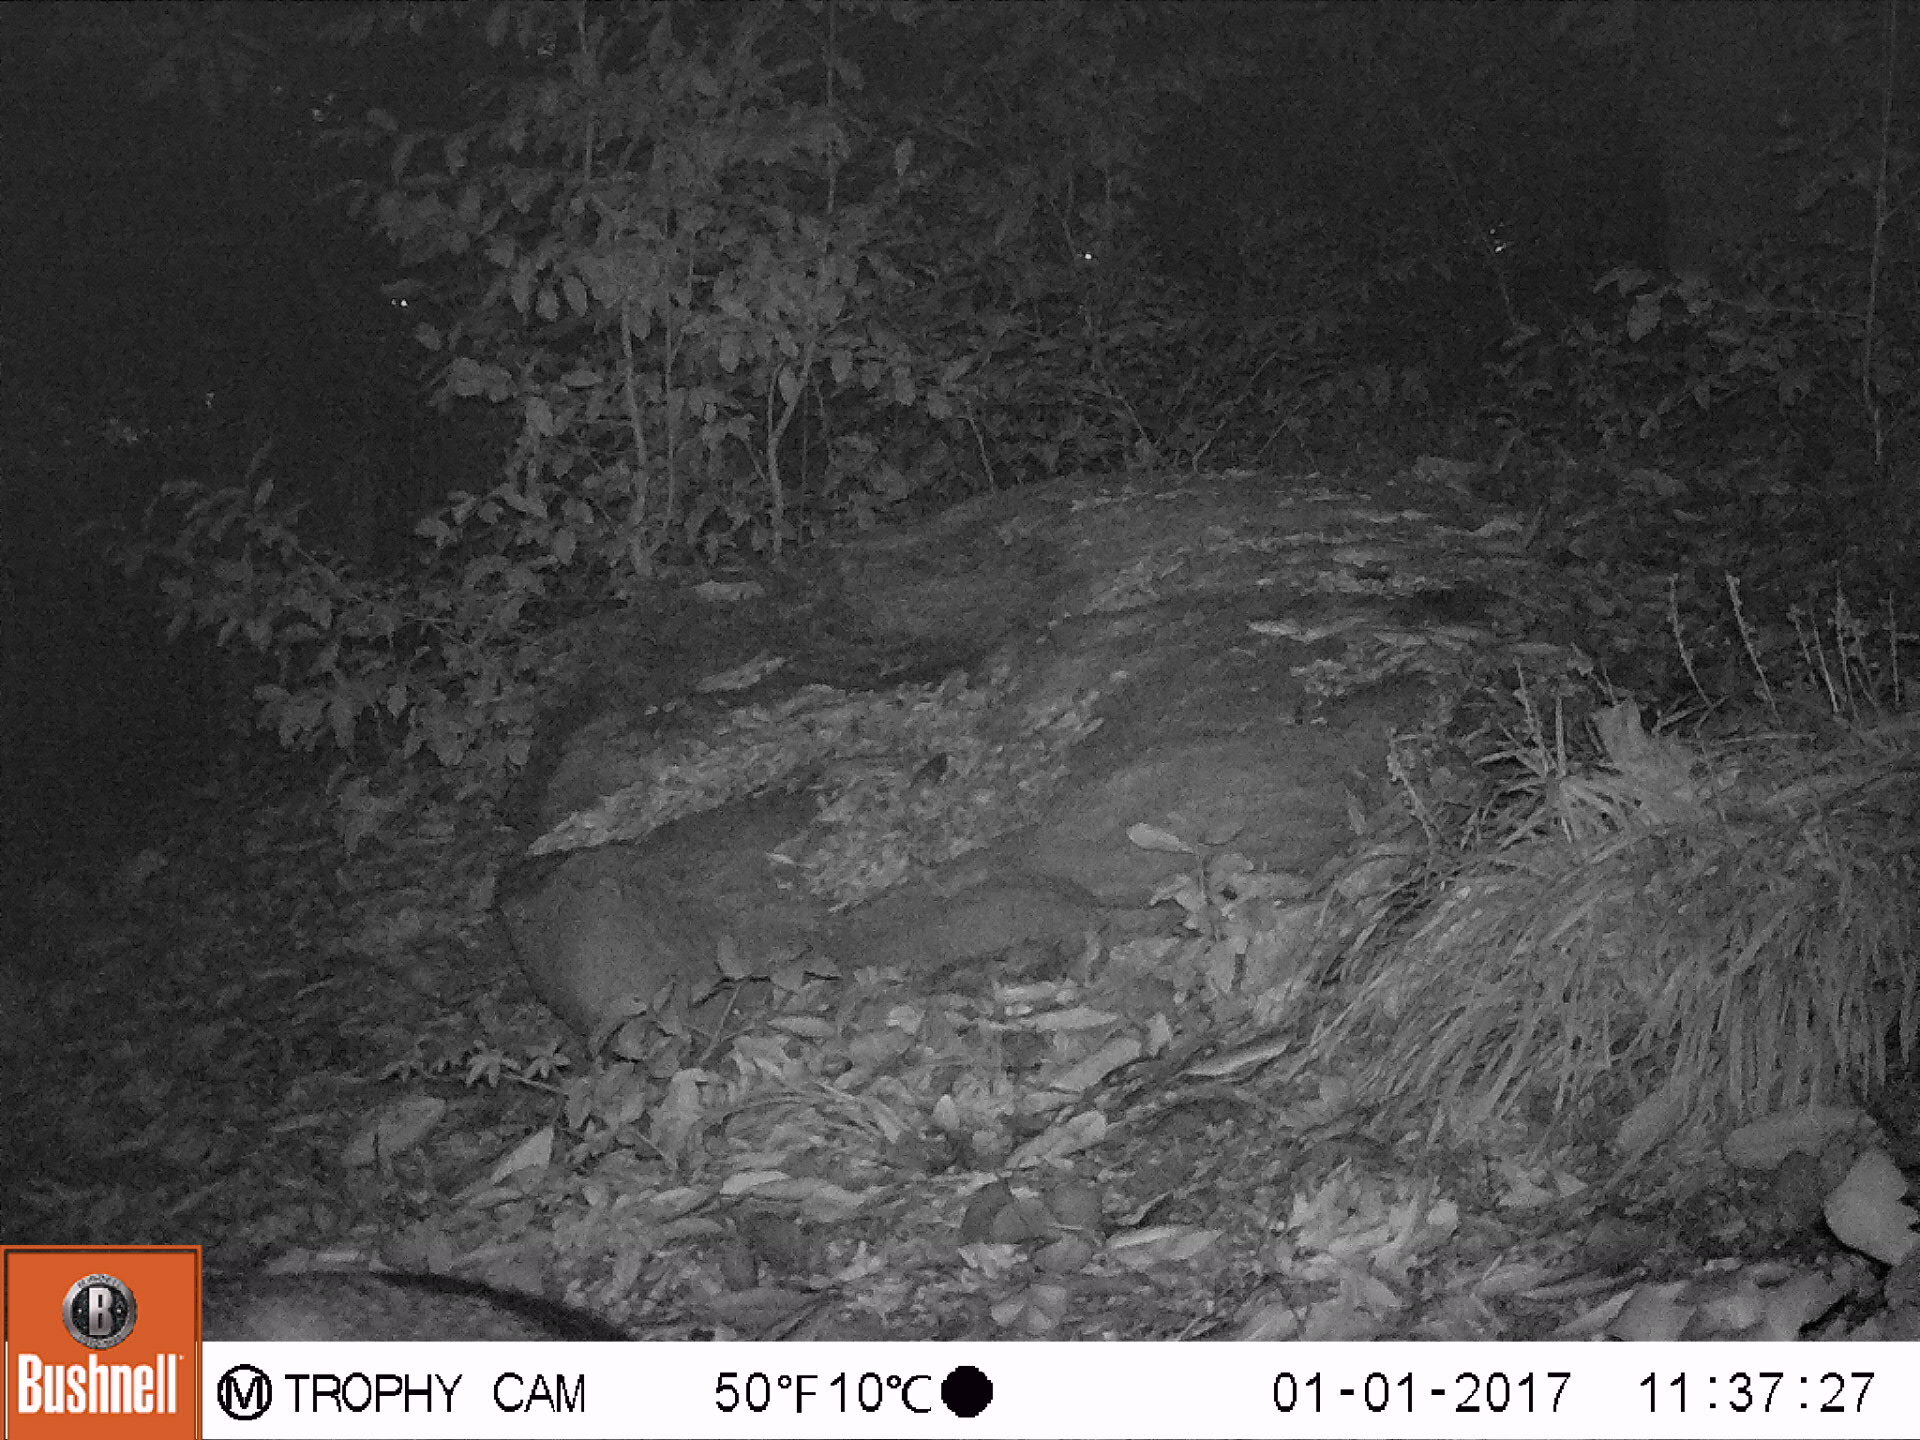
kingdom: Animalia
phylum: Chordata
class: Mammalia
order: Carnivora
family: Canidae
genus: Urocyon
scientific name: Urocyon cinereoargenteus
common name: Gray fox
